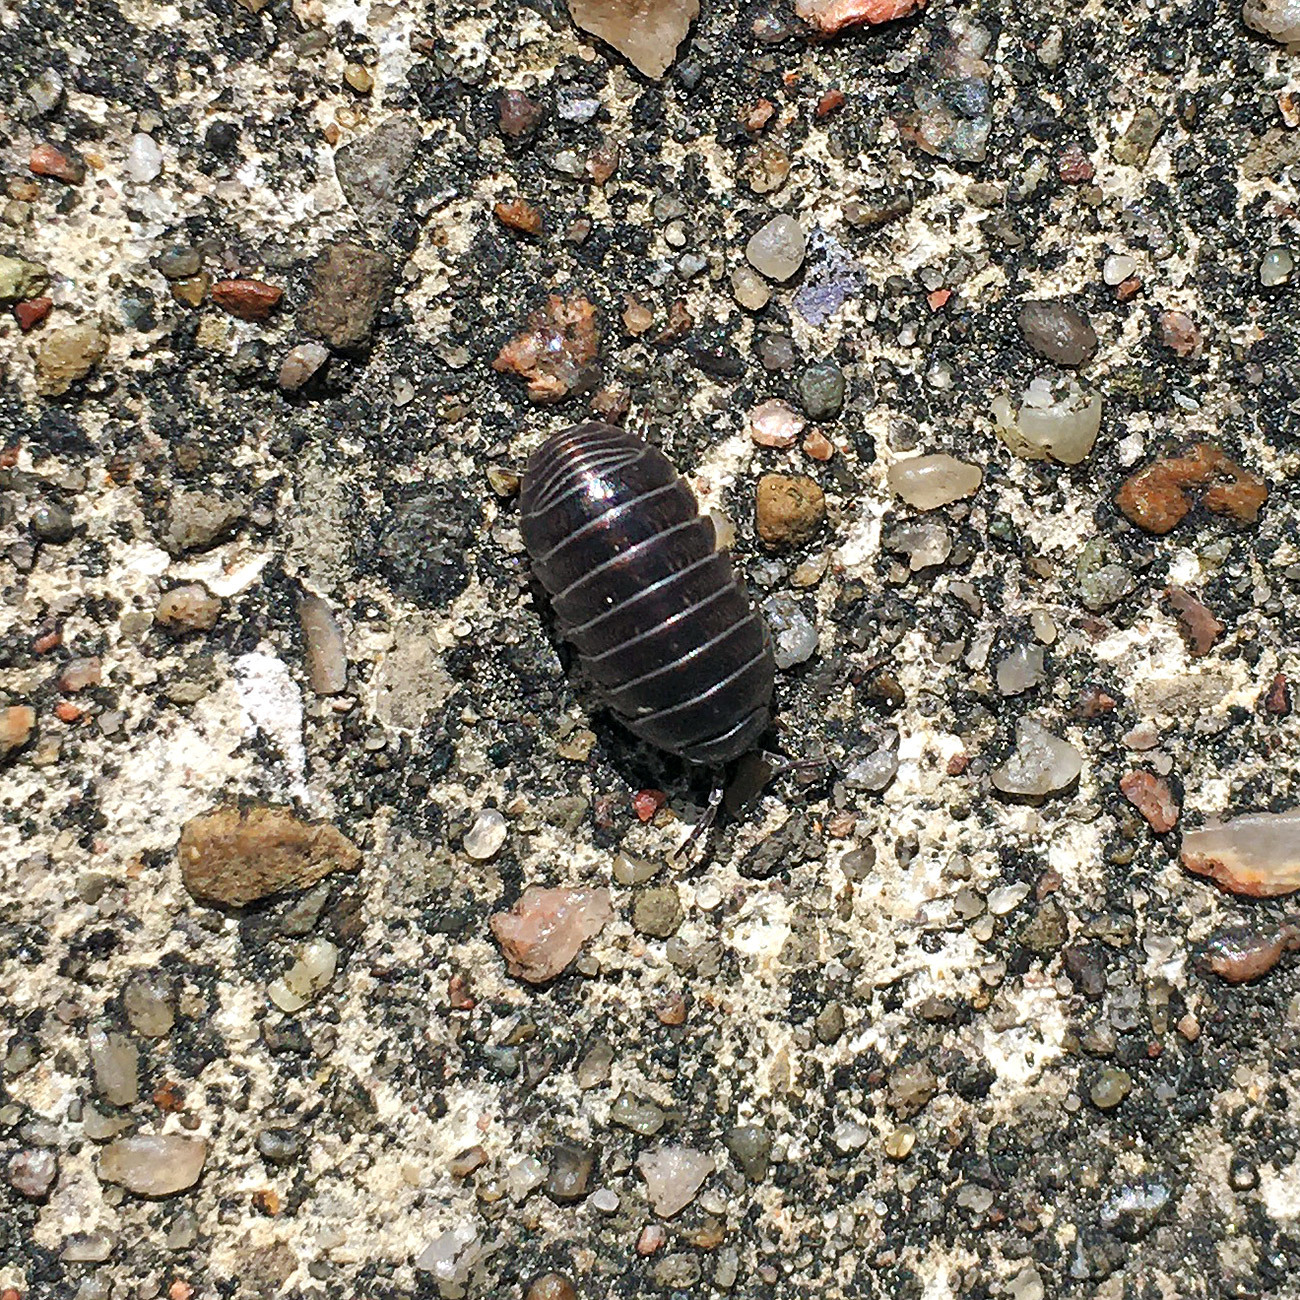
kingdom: Animalia
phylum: Arthropoda
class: Malacostraca
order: Isopoda
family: Armadillidiidae
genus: Armadillidium
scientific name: Armadillidium vulgare
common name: Common pill woodlouse
